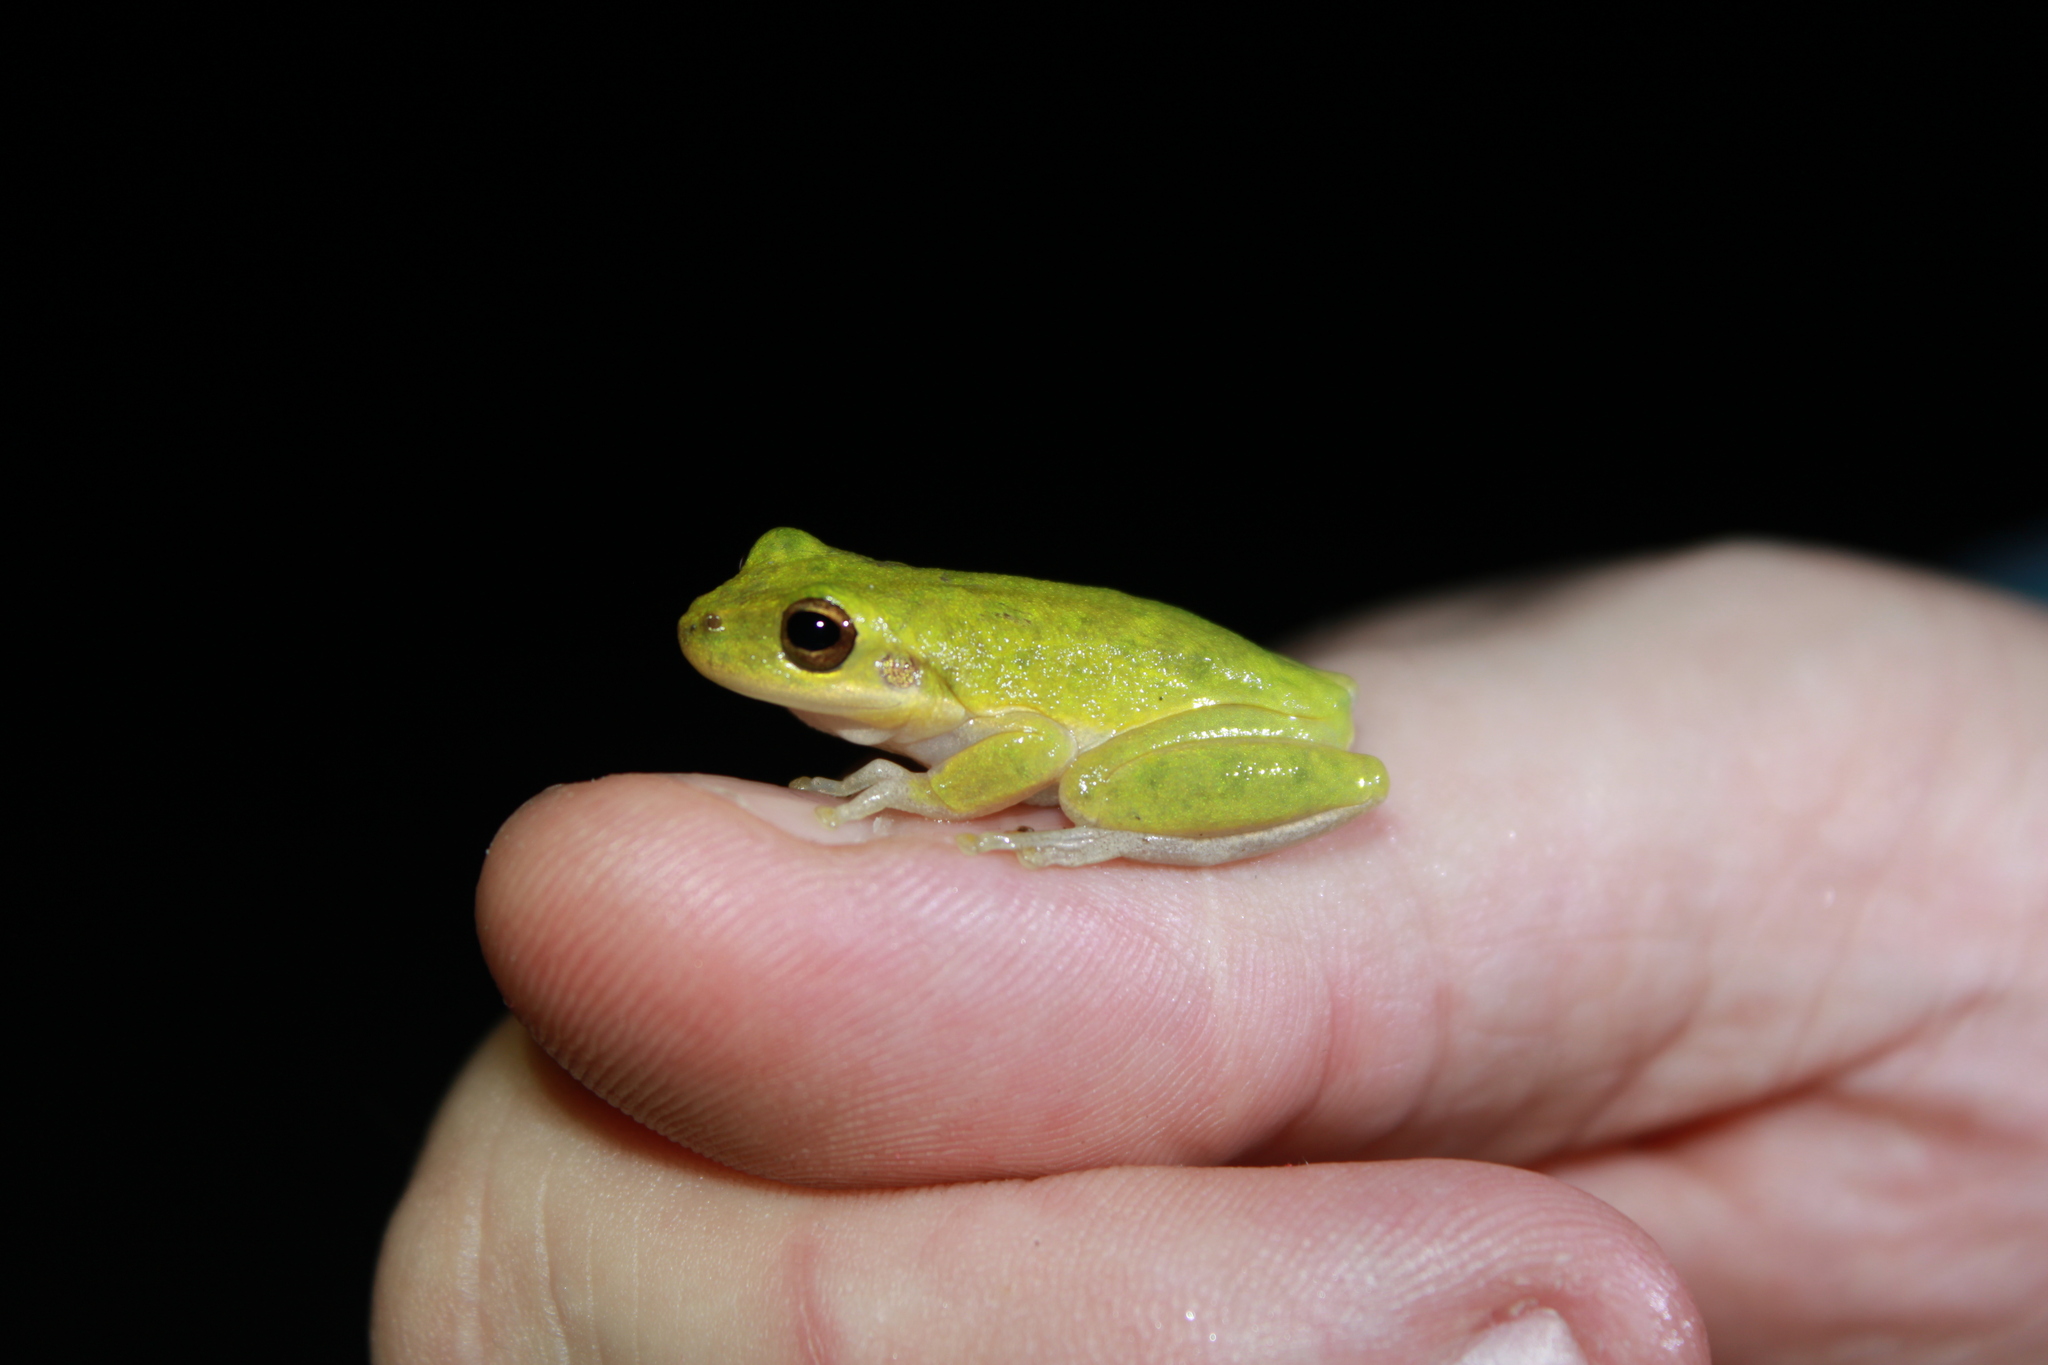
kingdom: Animalia
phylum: Chordata
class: Amphibia
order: Anura
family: Hylidae
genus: Dryophytes
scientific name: Dryophytes squirellus
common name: Squirrel treefrog
